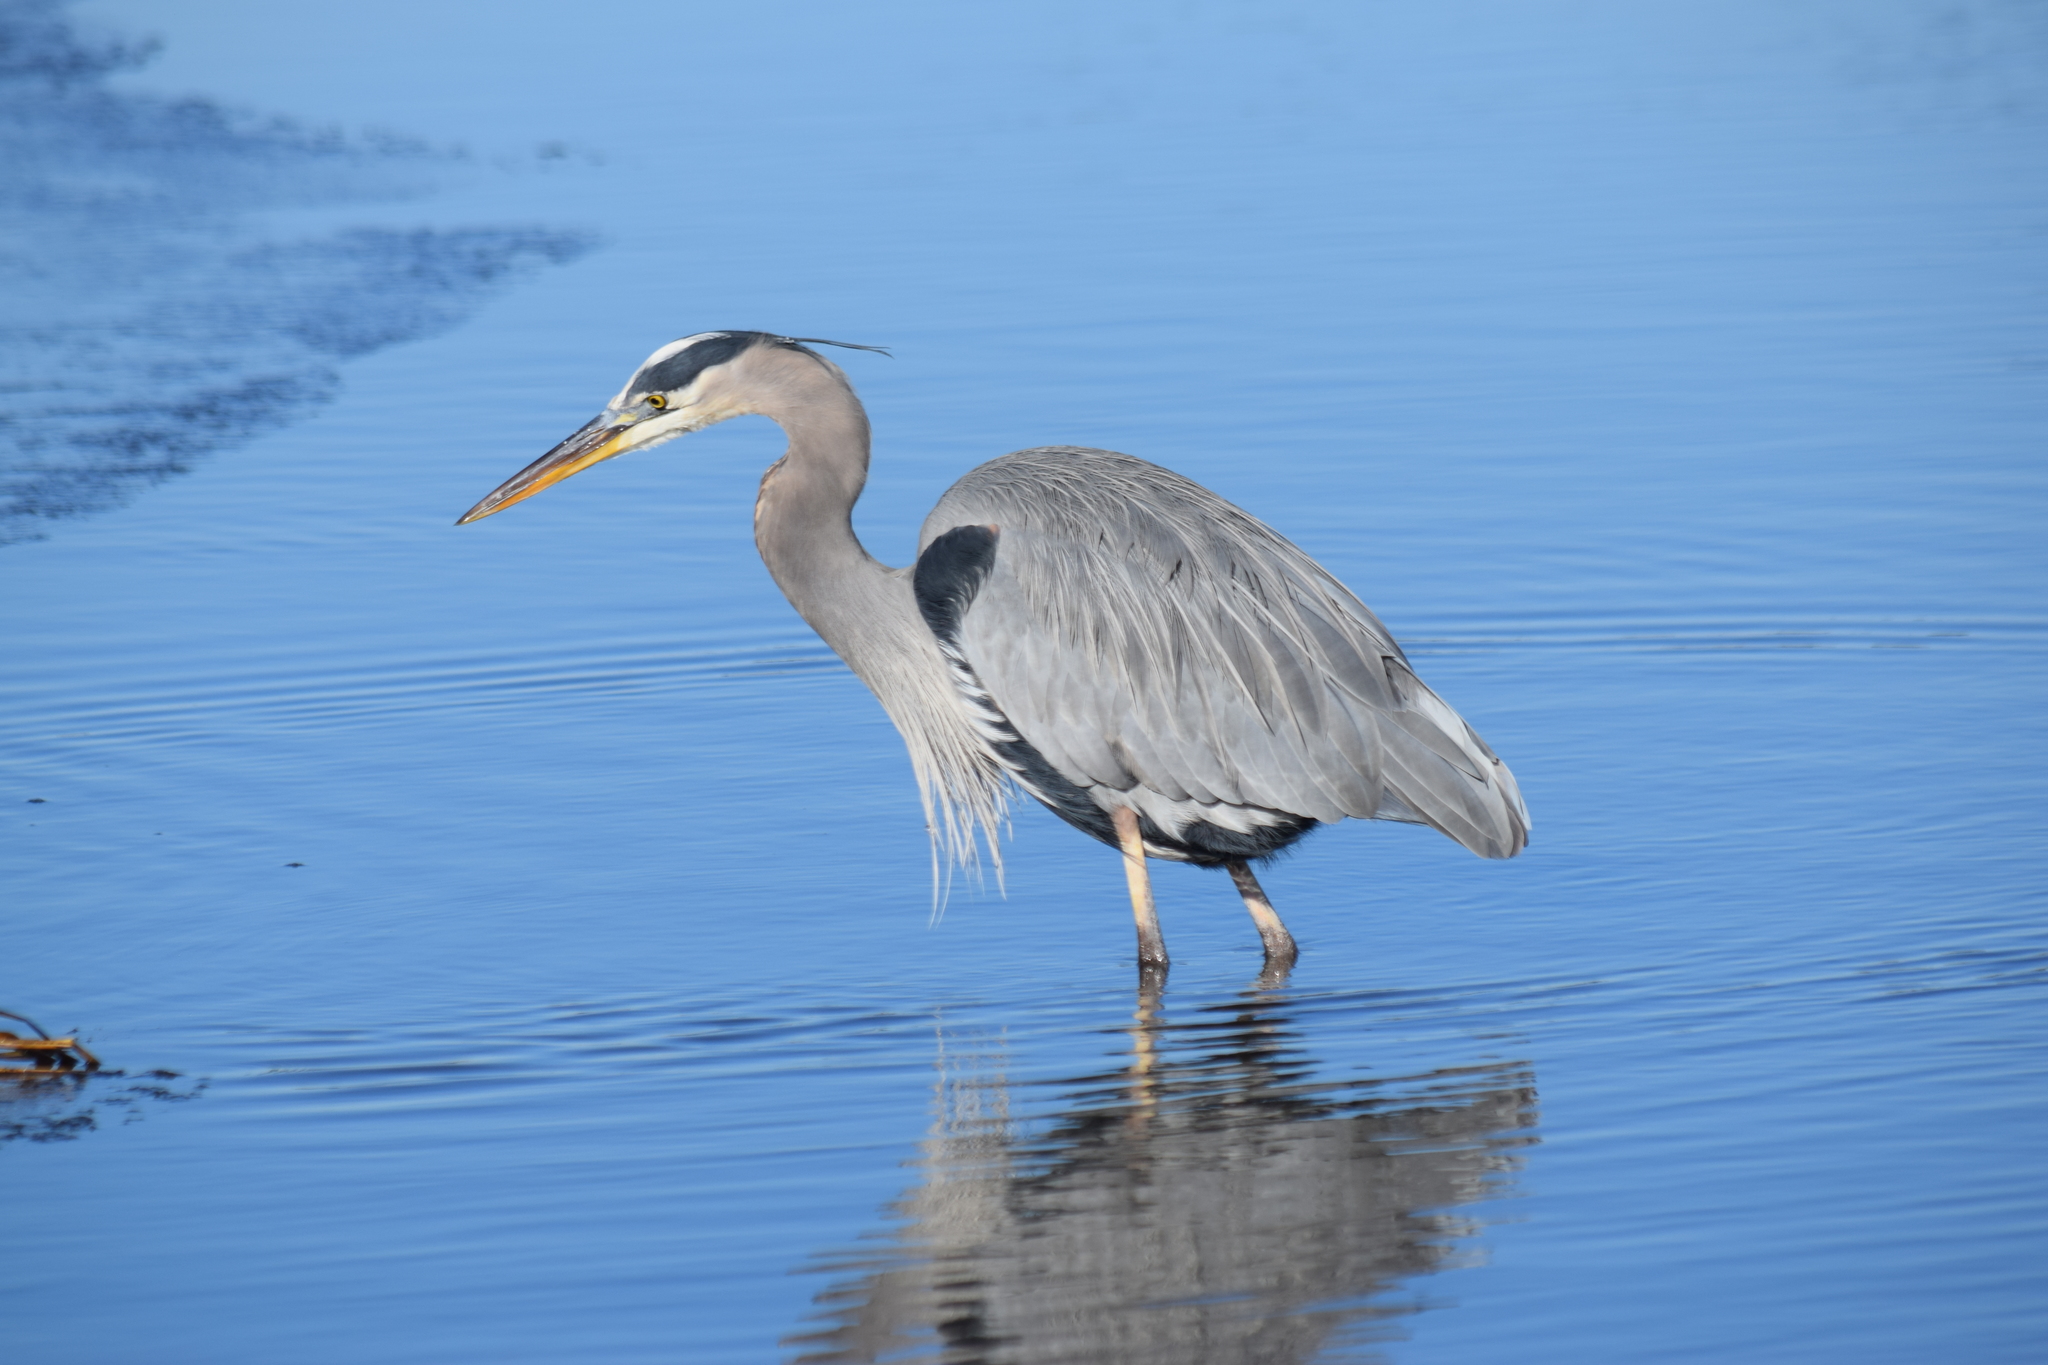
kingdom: Animalia
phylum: Chordata
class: Aves
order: Pelecaniformes
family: Ardeidae
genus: Ardea
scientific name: Ardea herodias
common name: Great blue heron
